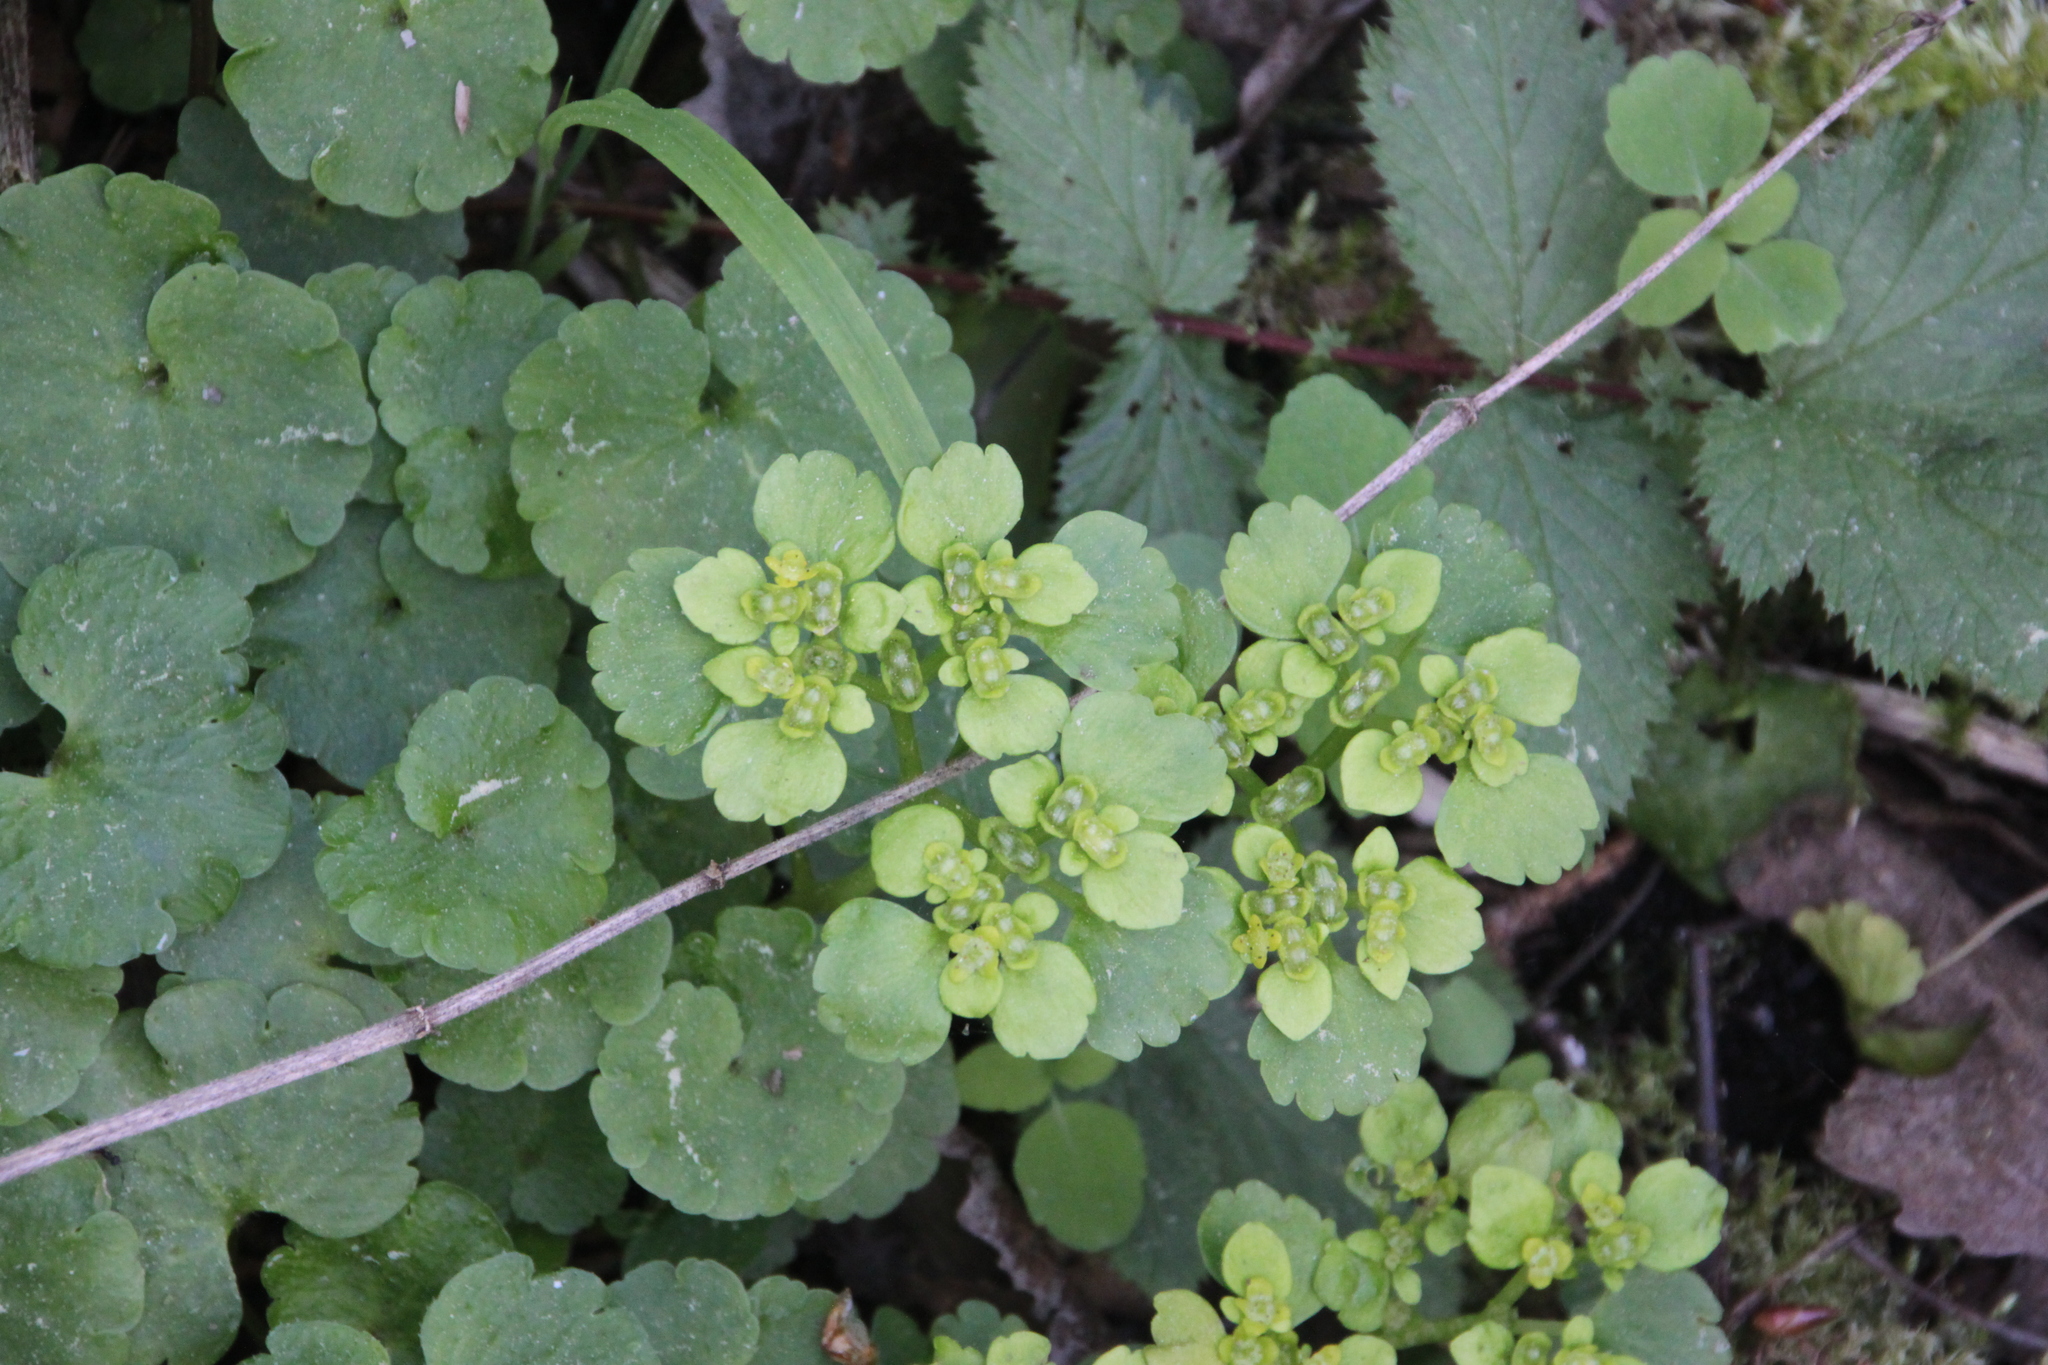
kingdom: Plantae
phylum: Tracheophyta
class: Magnoliopsida
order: Saxifragales
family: Saxifragaceae
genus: Chrysosplenium
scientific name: Chrysosplenium alternifolium
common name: Alternate-leaved golden-saxifrage
